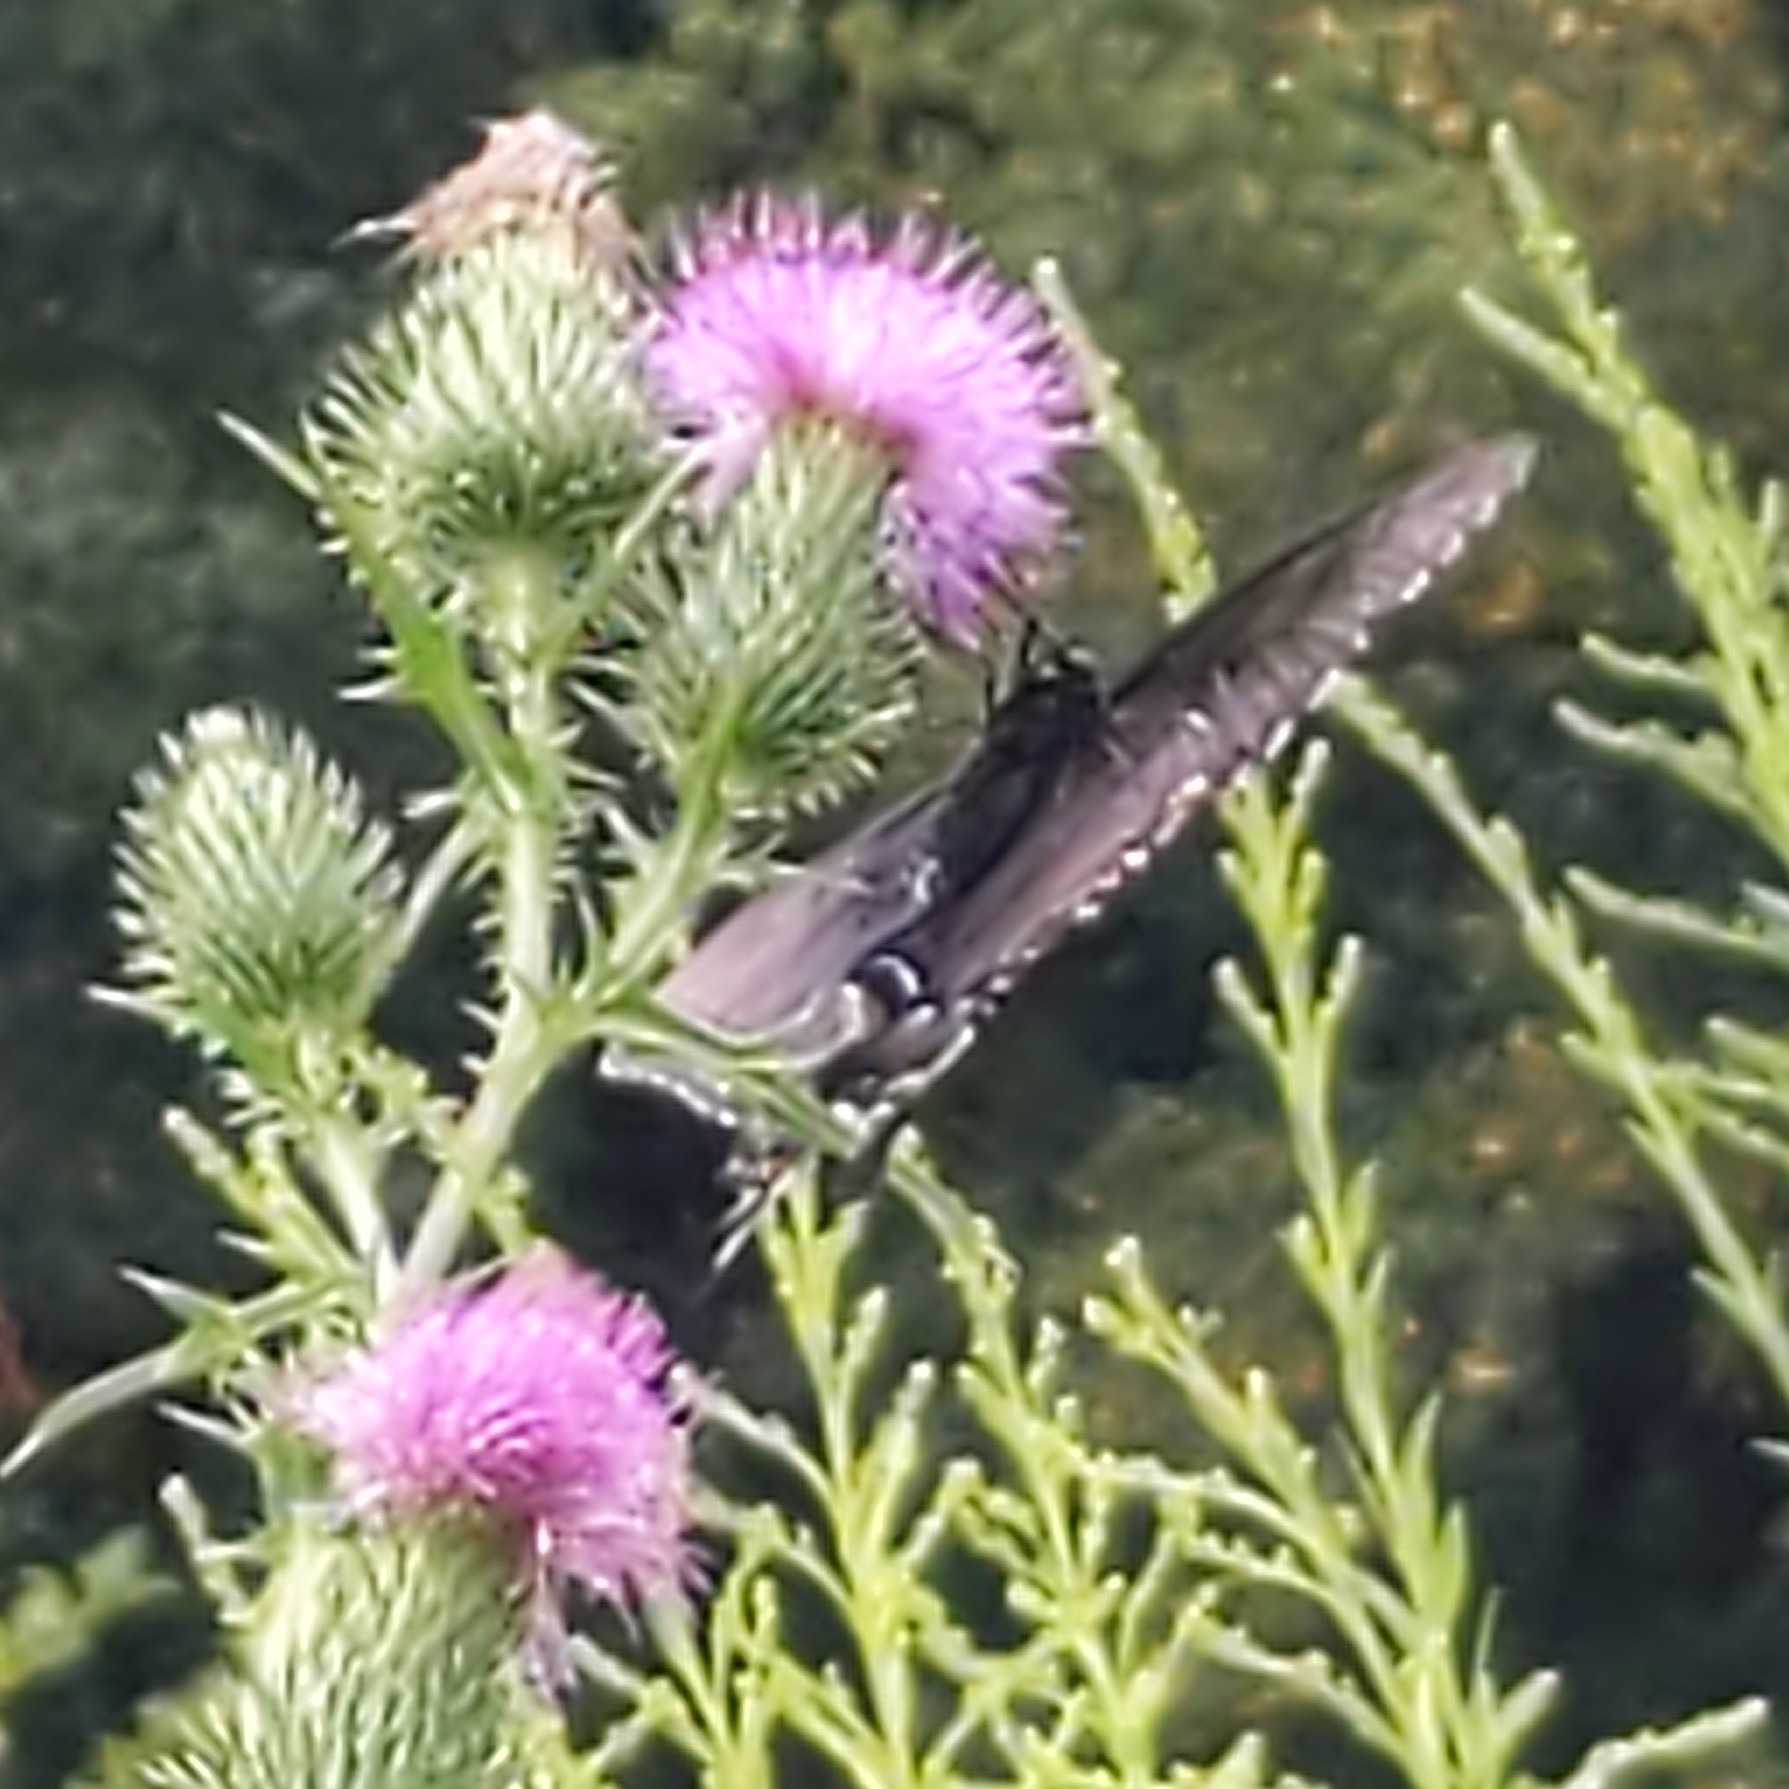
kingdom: Animalia
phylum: Arthropoda
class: Insecta
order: Lepidoptera
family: Papilionidae
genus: Papilio
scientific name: Papilio glaucus
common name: Tiger swallowtail
